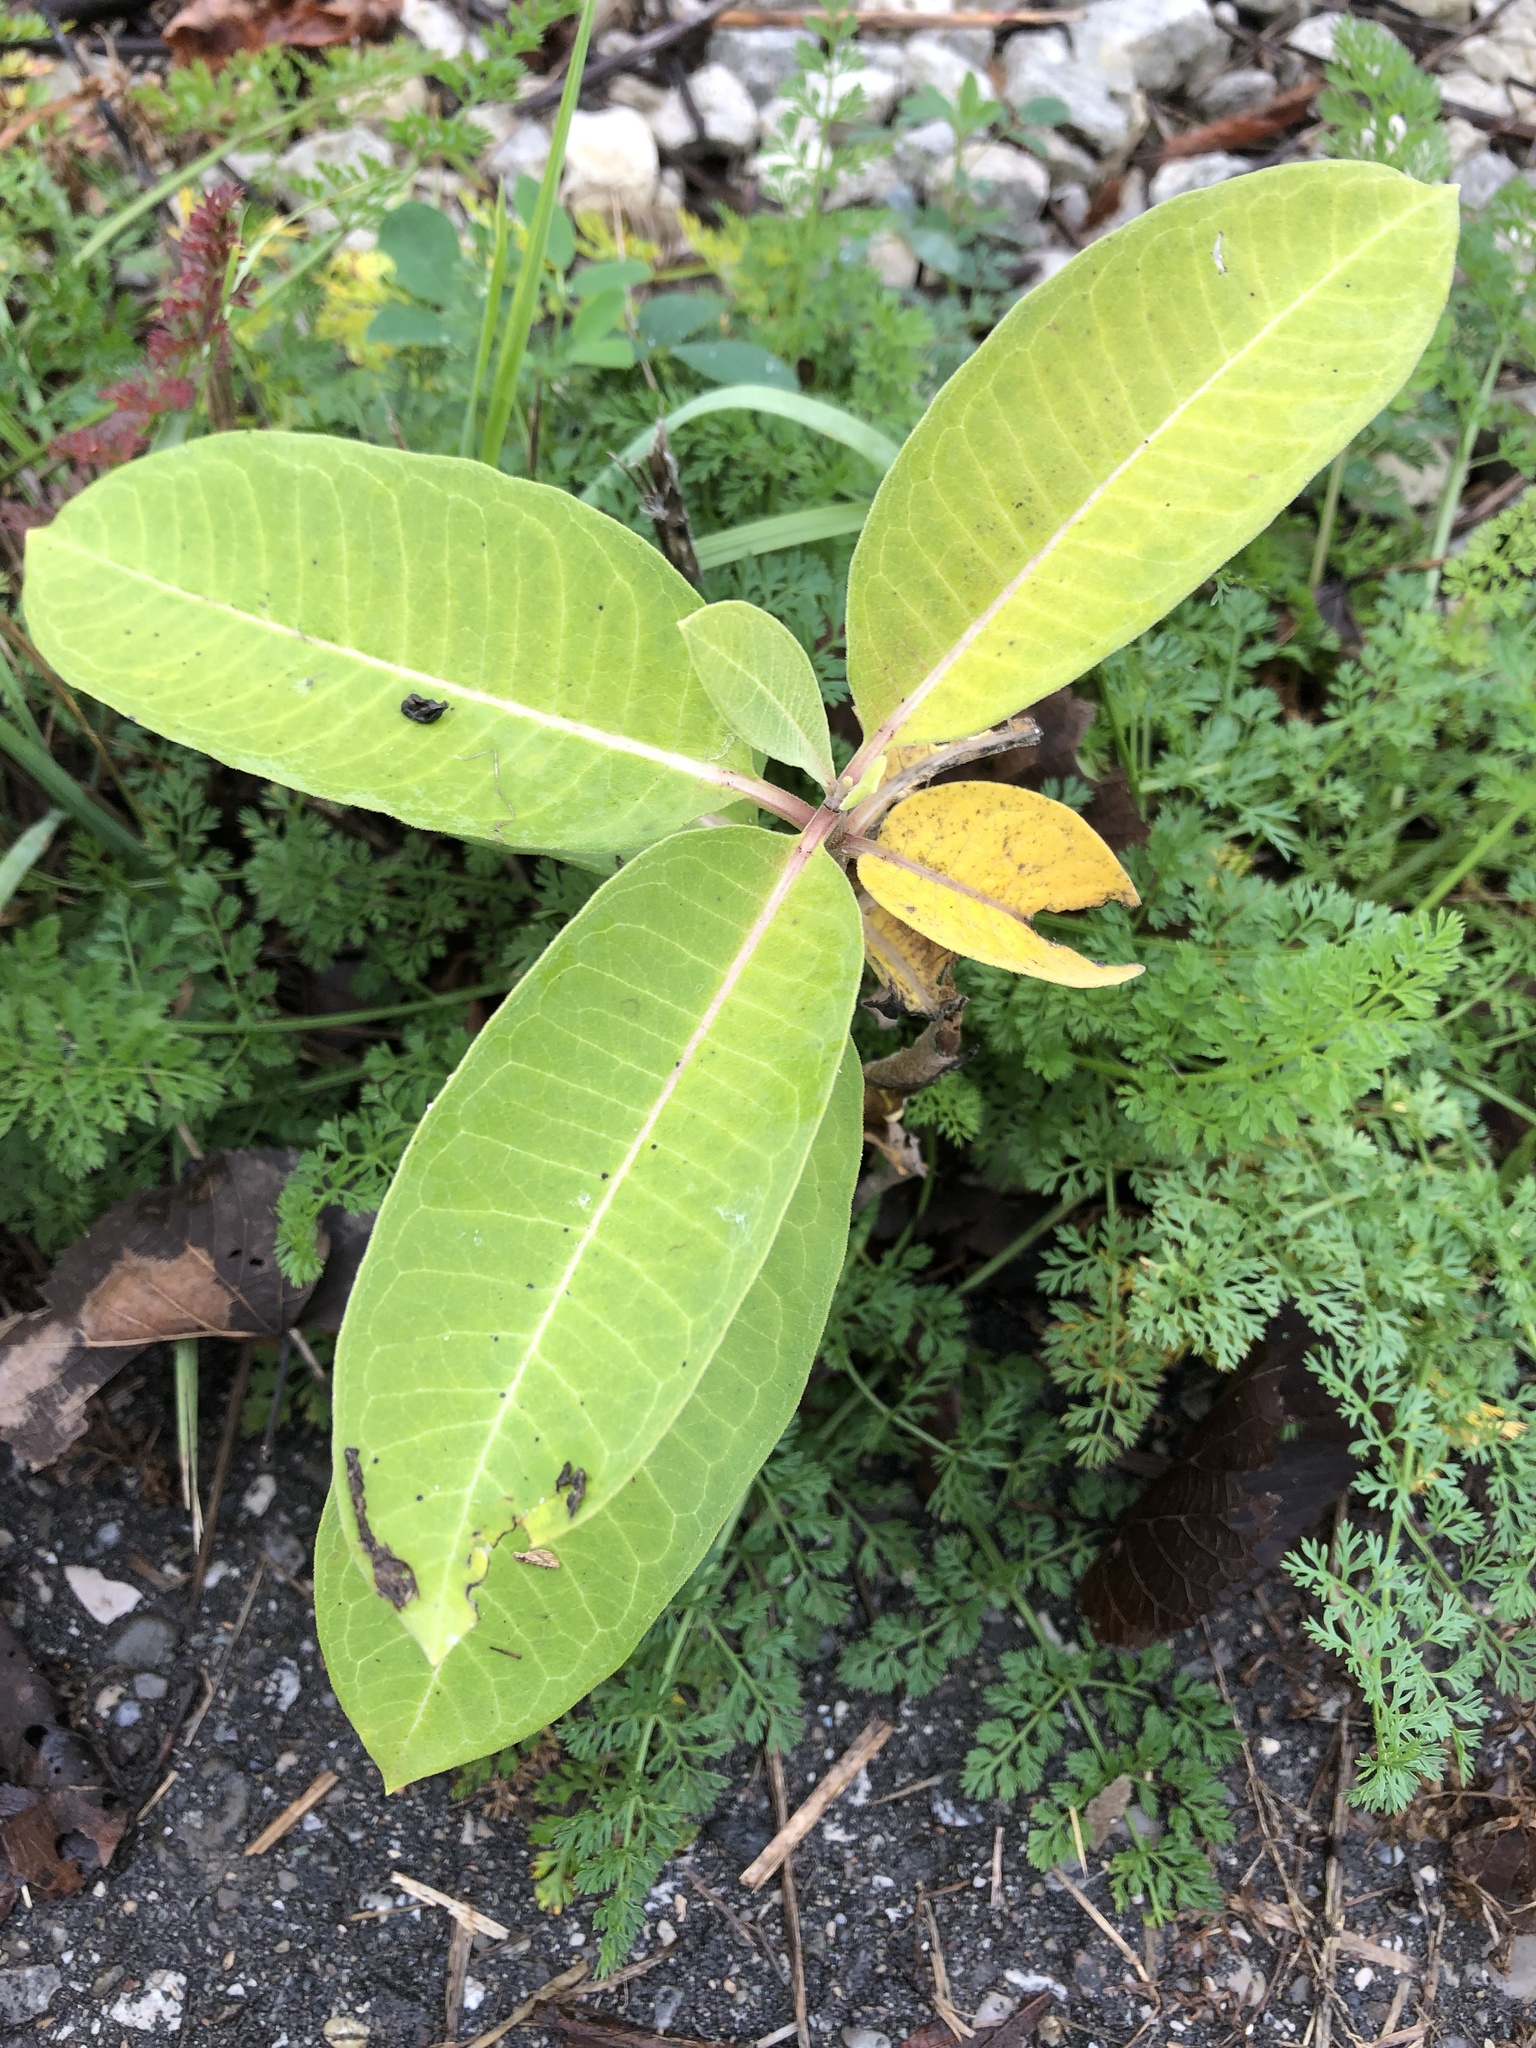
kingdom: Plantae
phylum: Tracheophyta
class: Magnoliopsida
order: Gentianales
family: Apocynaceae
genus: Asclepias
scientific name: Asclepias syriaca
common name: Common milkweed
